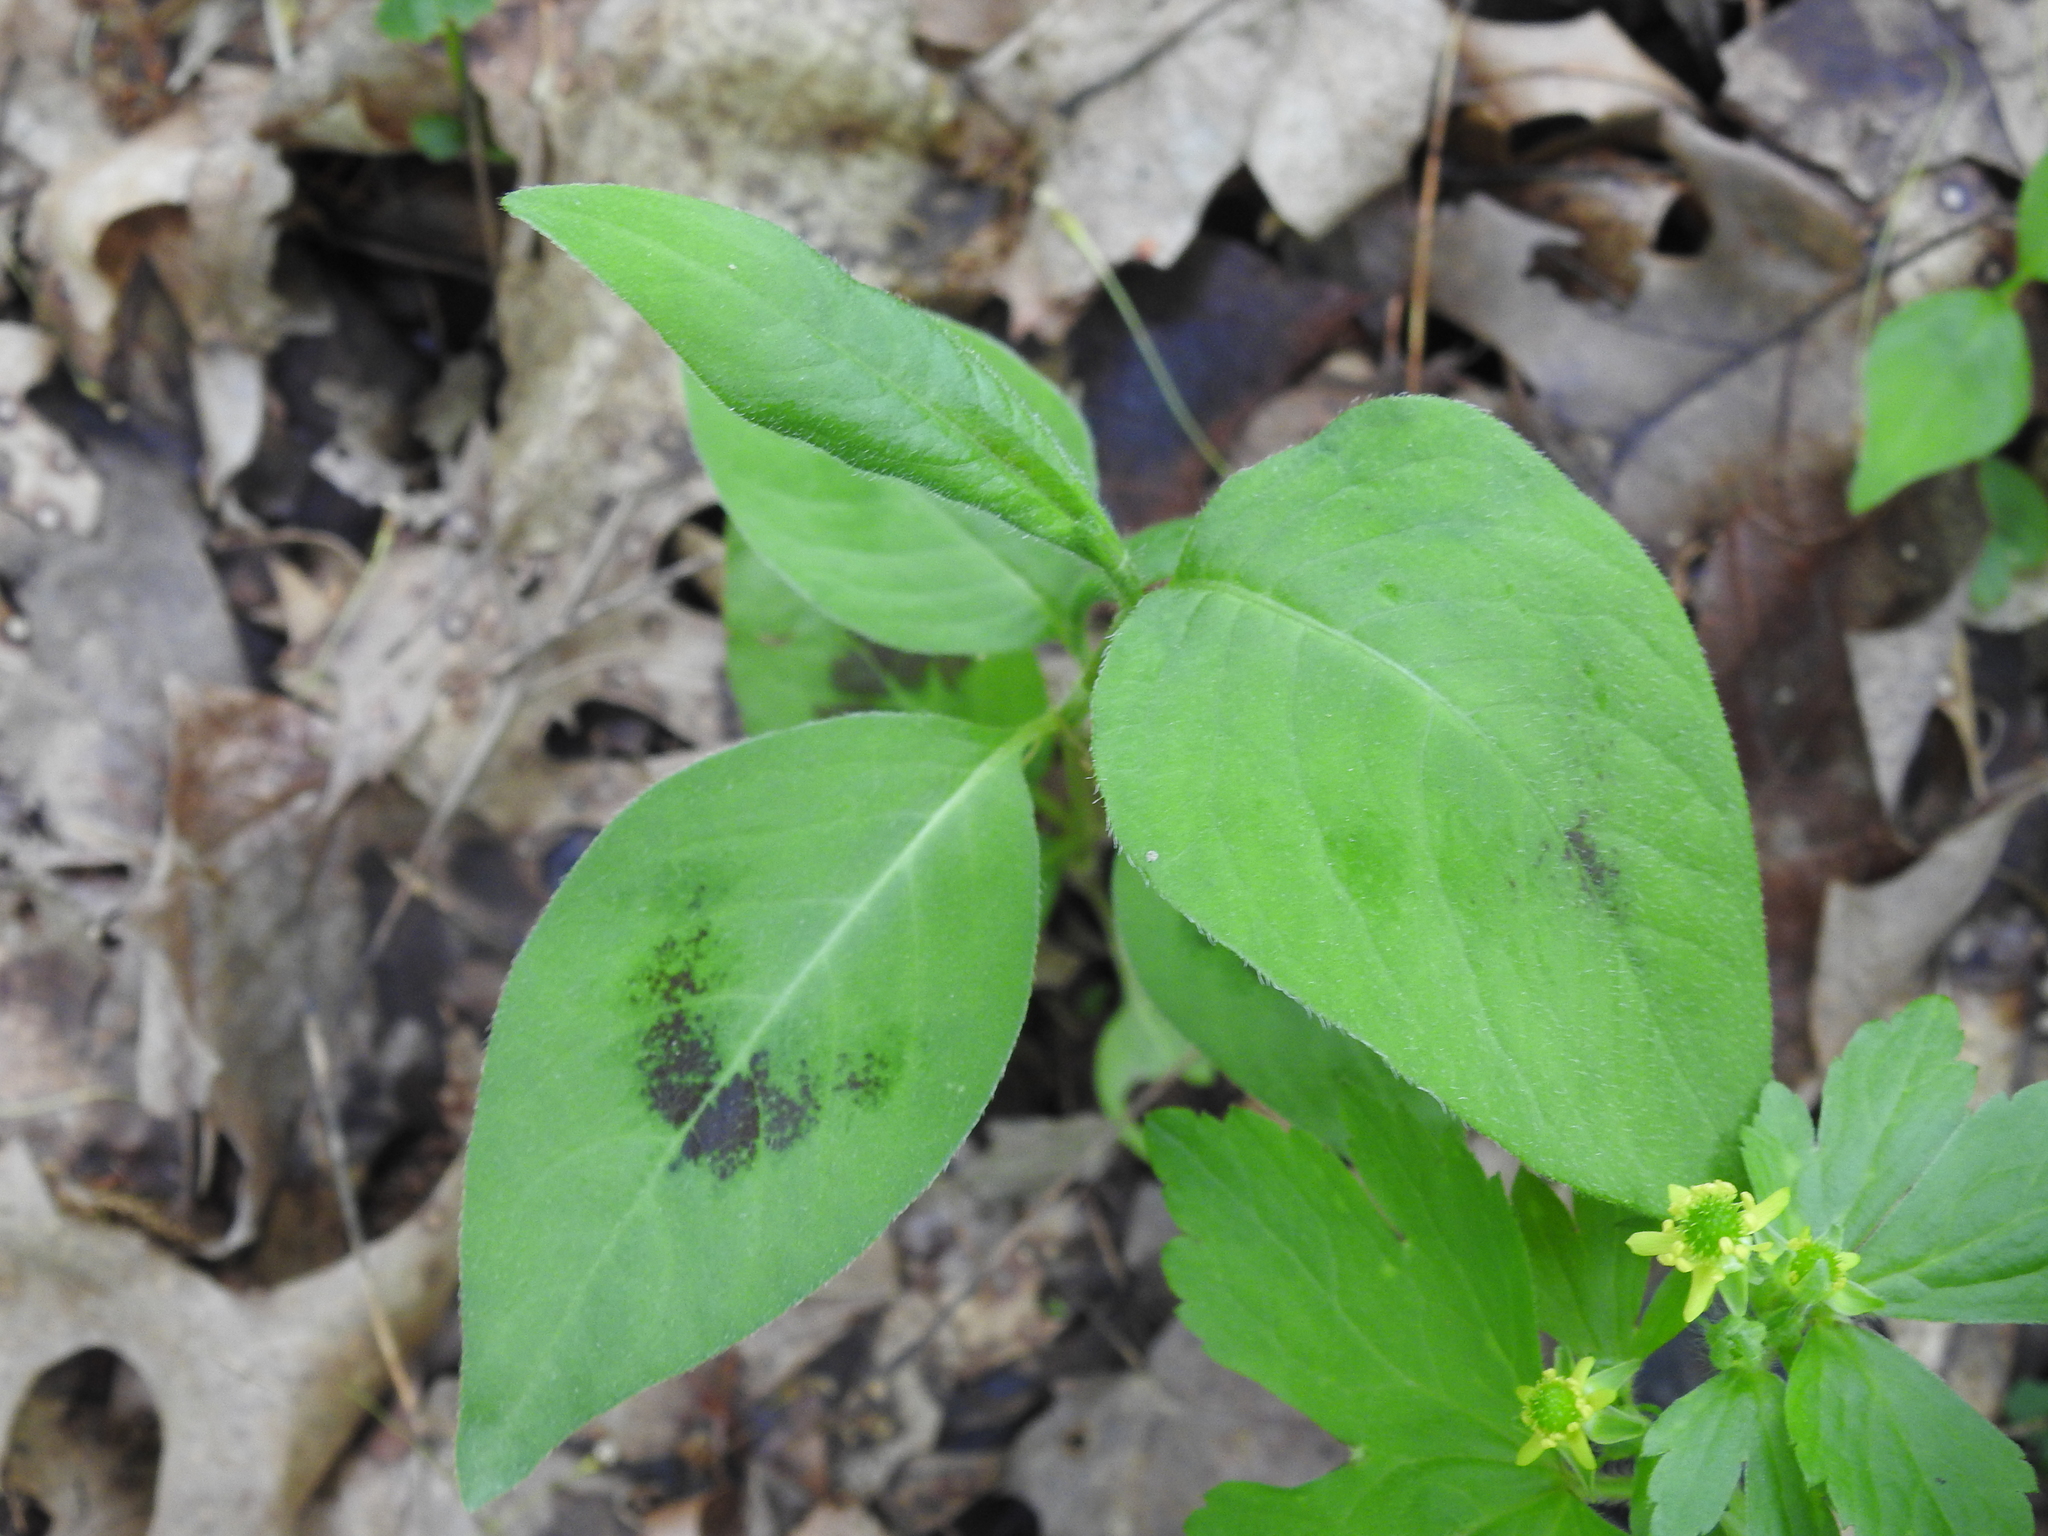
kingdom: Plantae
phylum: Tracheophyta
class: Magnoliopsida
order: Caryophyllales
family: Polygonaceae
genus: Persicaria
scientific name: Persicaria virginiana
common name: Jumpseed
